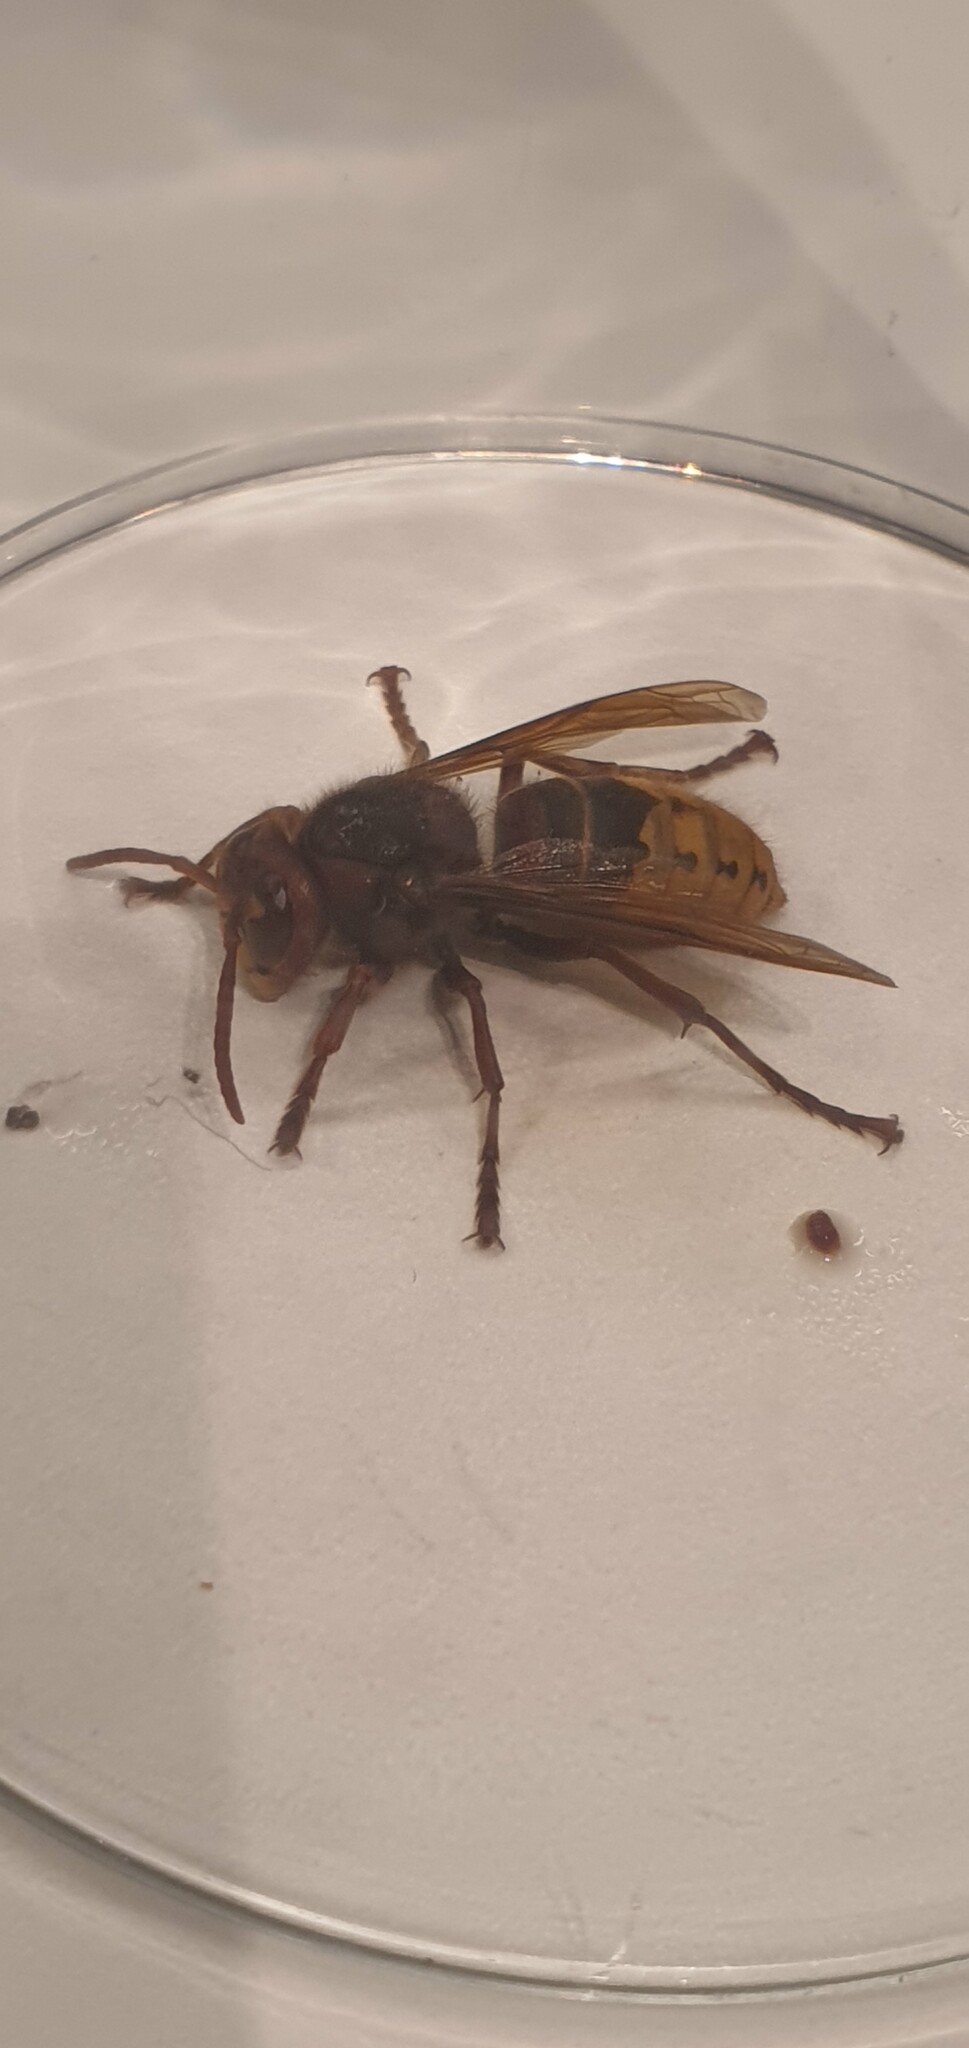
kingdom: Animalia
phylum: Arthropoda
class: Insecta
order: Hymenoptera
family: Vespidae
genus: Vespa
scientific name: Vespa crabro
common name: Hornet
